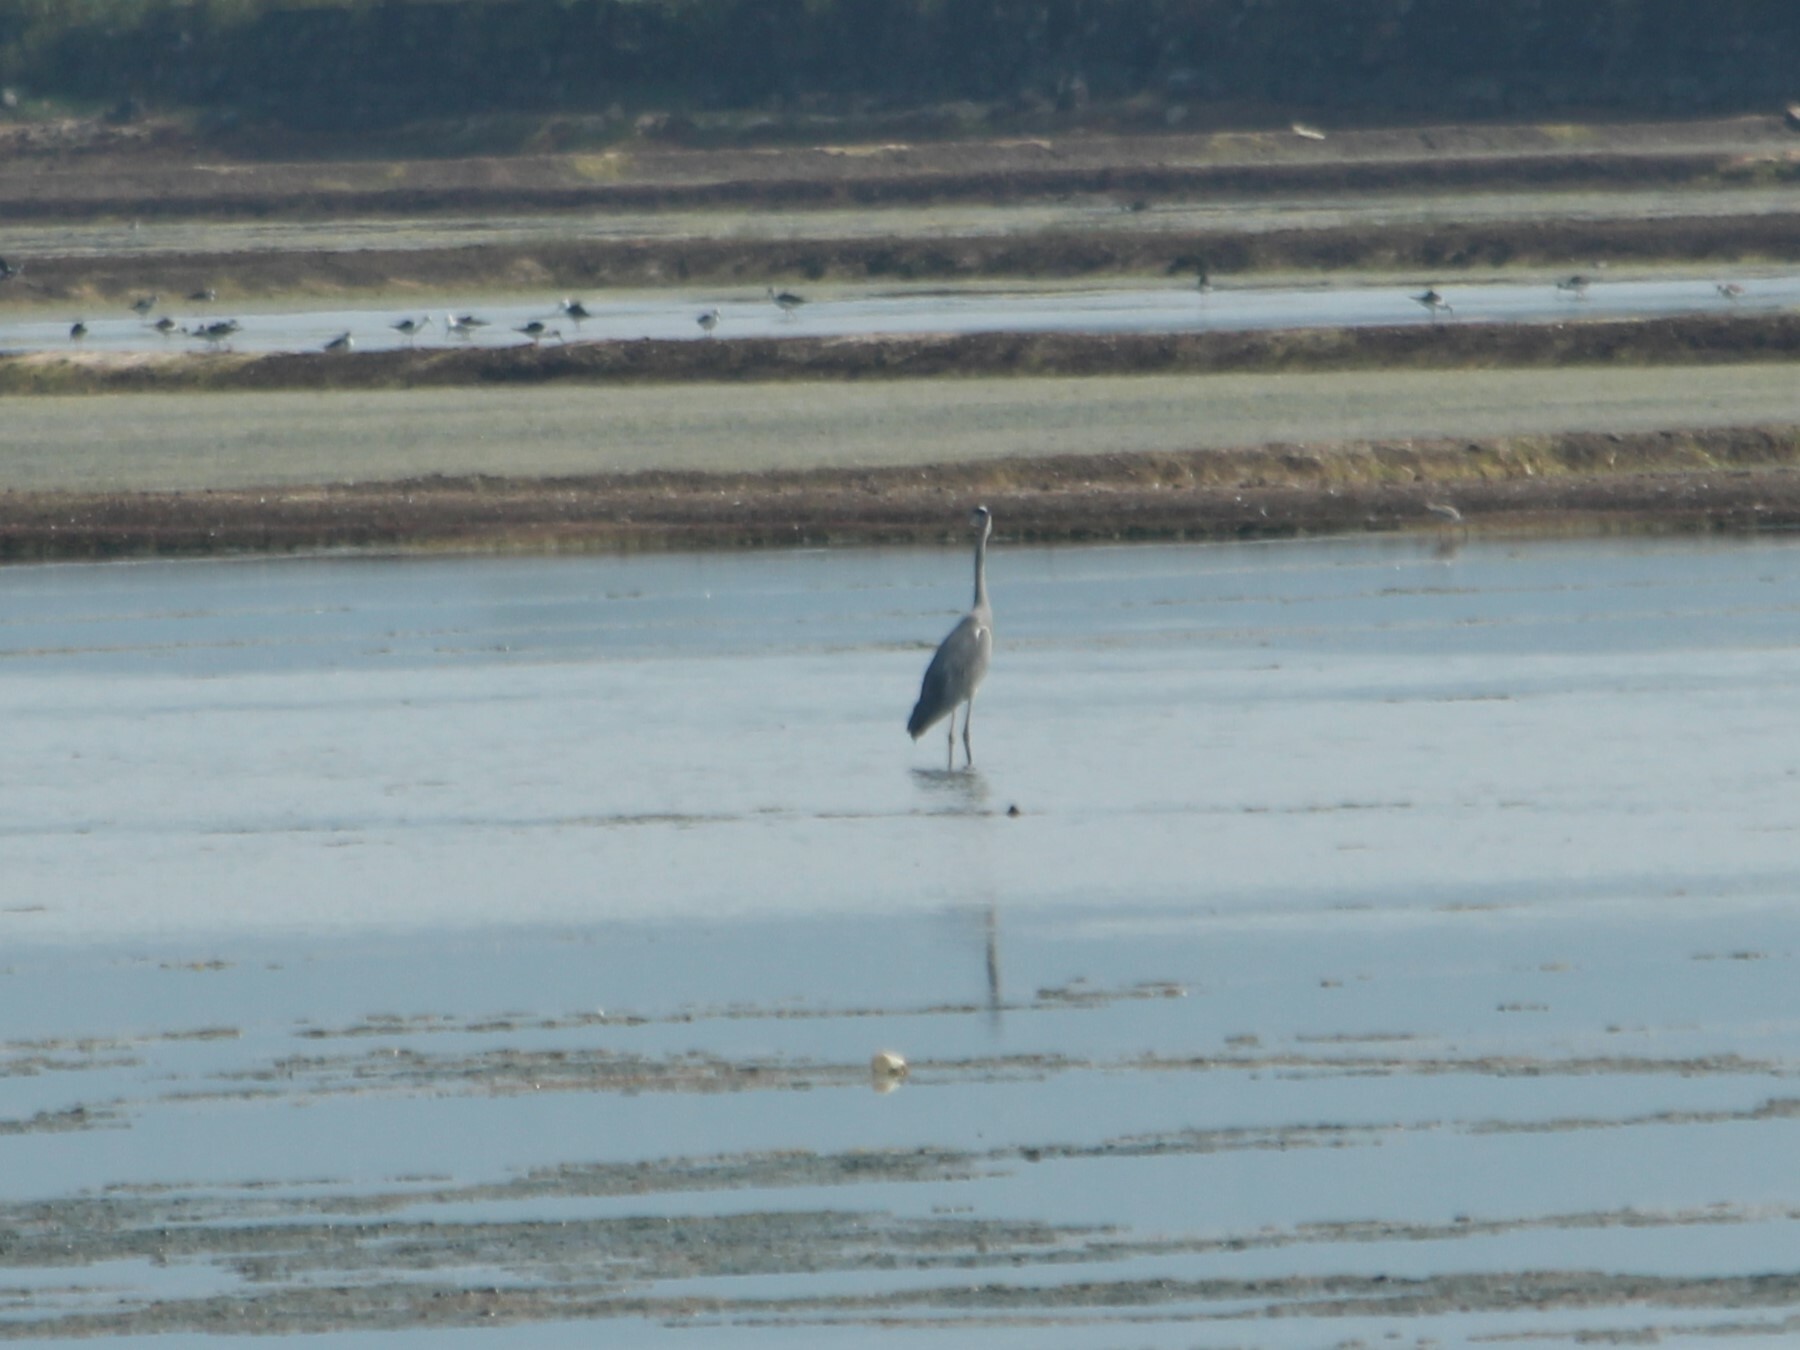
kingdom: Animalia
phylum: Chordata
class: Aves
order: Pelecaniformes
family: Ardeidae
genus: Ardea
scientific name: Ardea cinerea
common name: Grey heron
